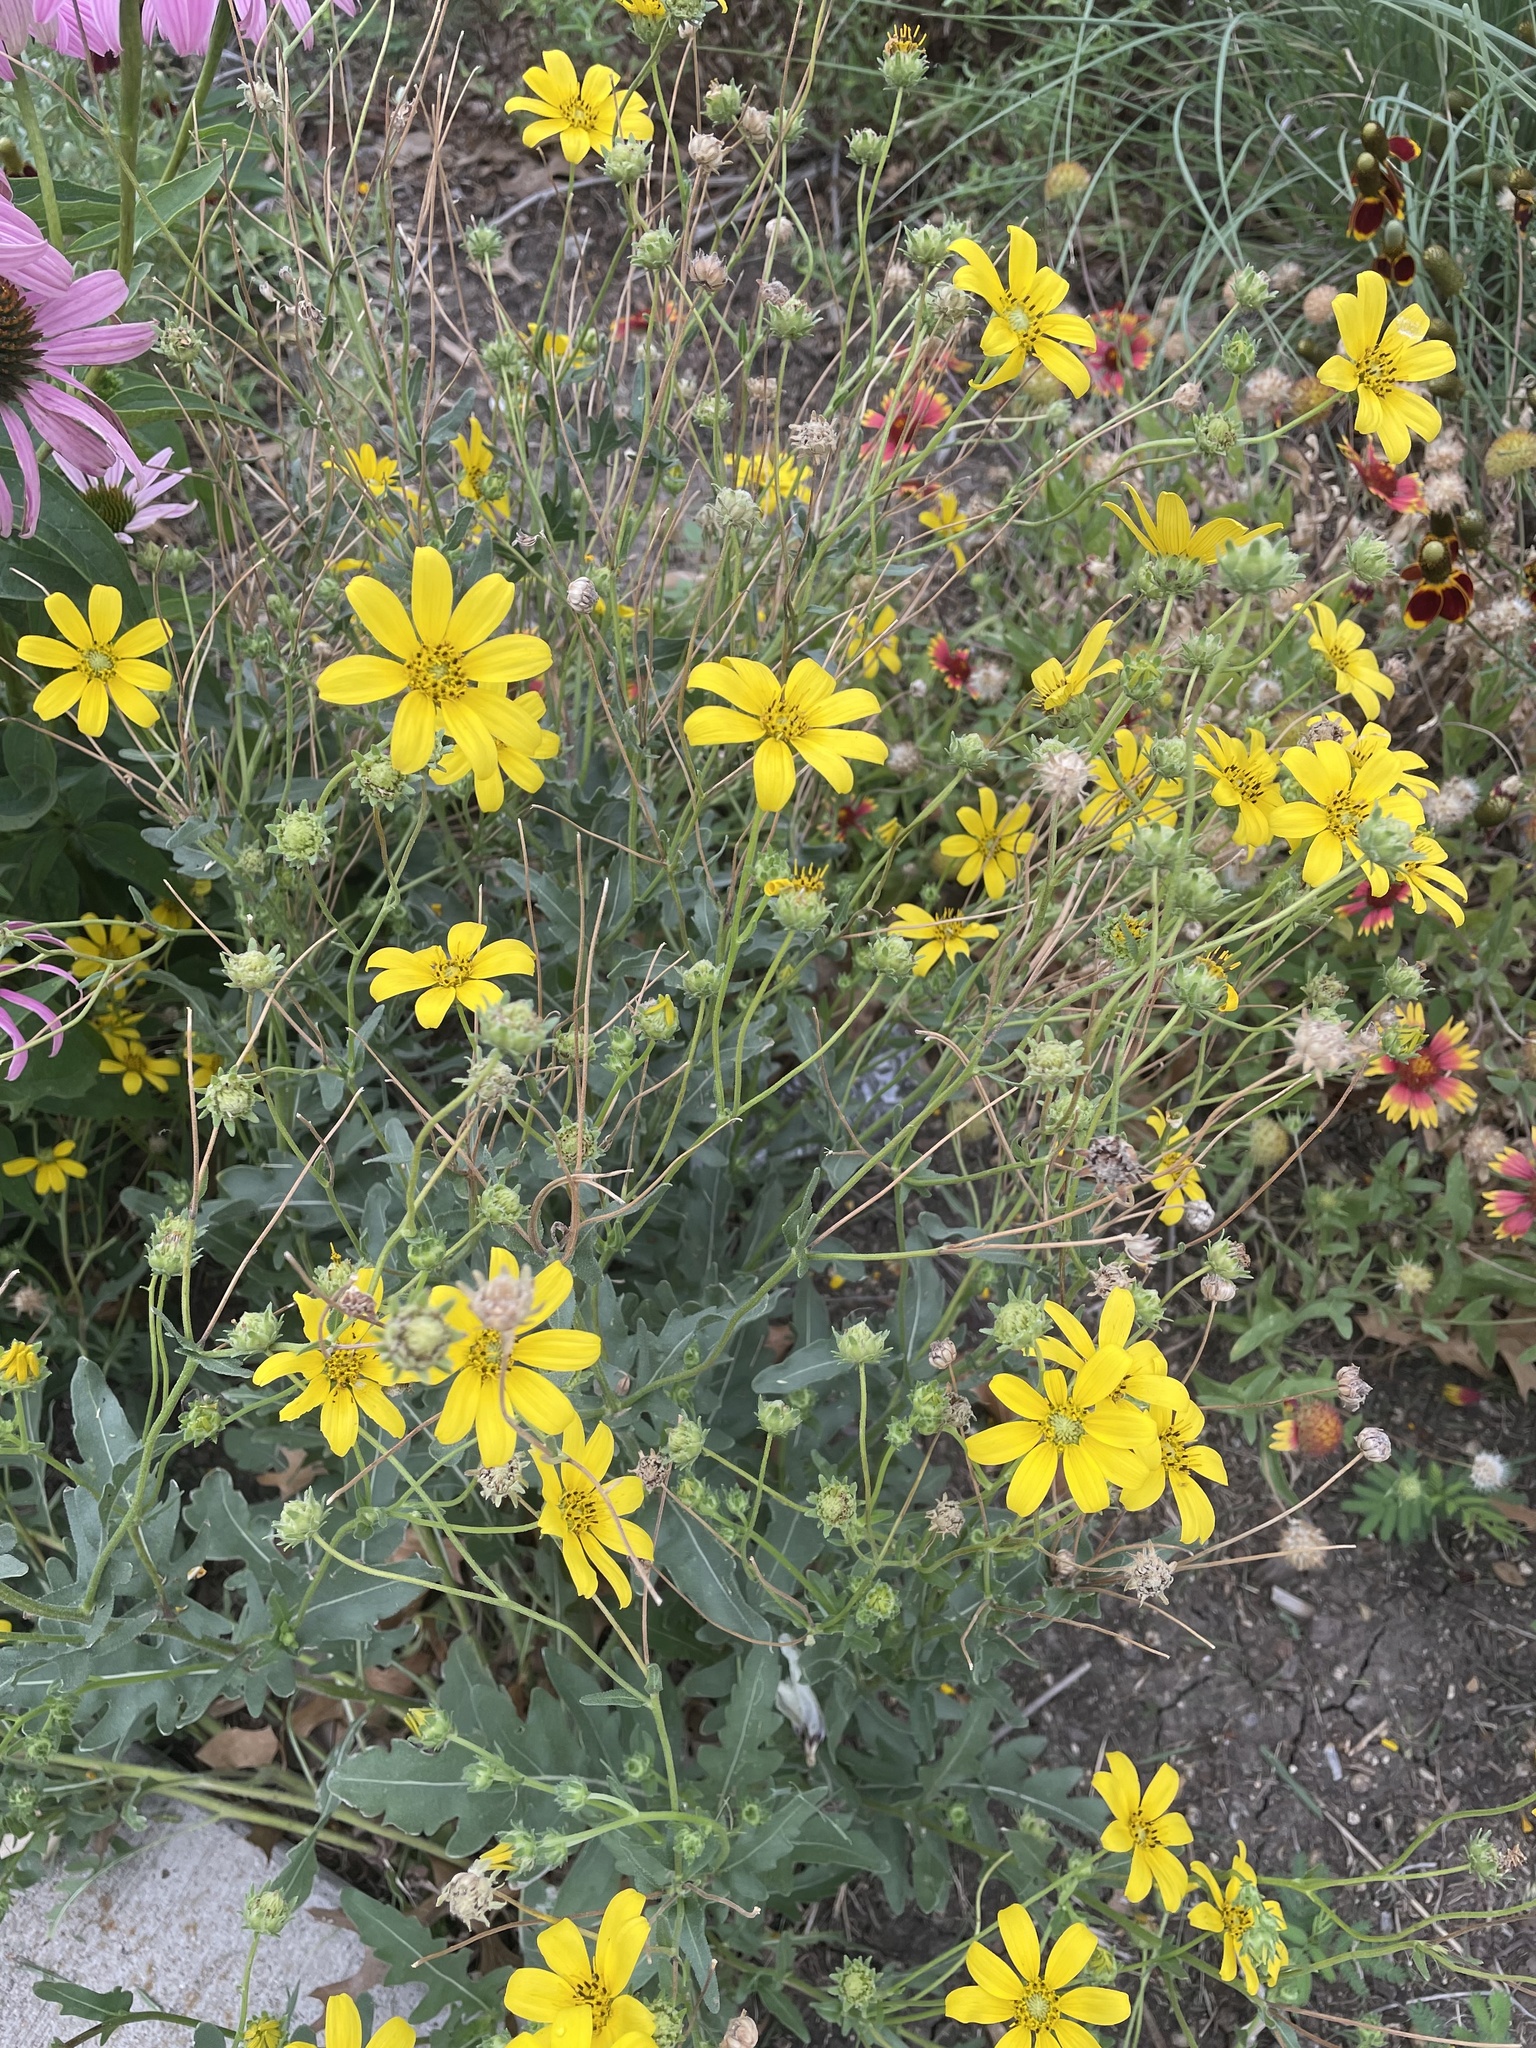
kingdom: Plantae
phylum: Tracheophyta
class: Magnoliopsida
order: Asterales
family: Asteraceae
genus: Engelmannia
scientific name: Engelmannia peristenia
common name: Engelmann's daisy
